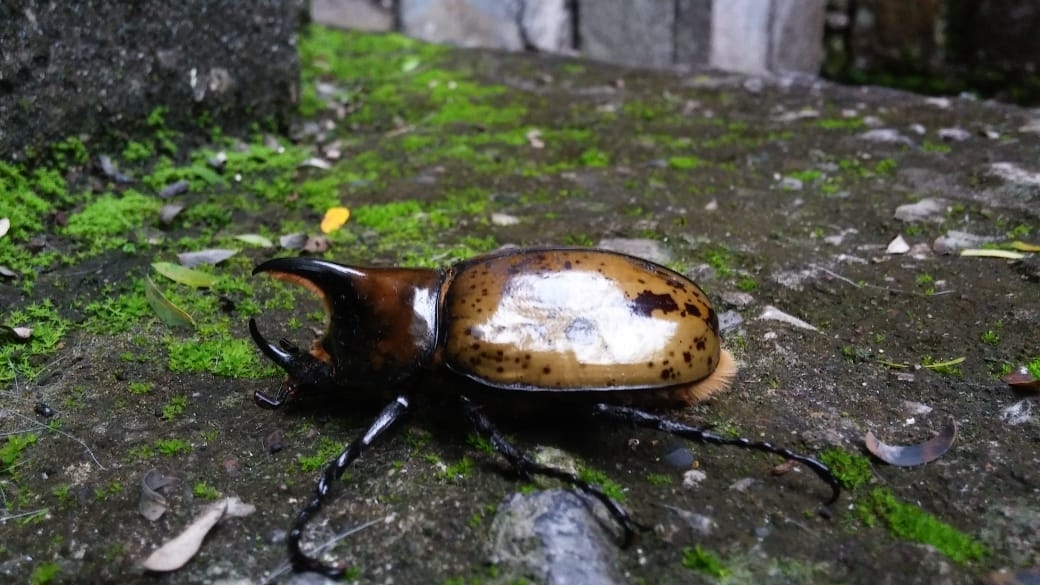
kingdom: Animalia
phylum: Arthropoda
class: Insecta
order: Coleoptera
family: Scarabaeidae
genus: Dynastes
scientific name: Dynastes hyllus
